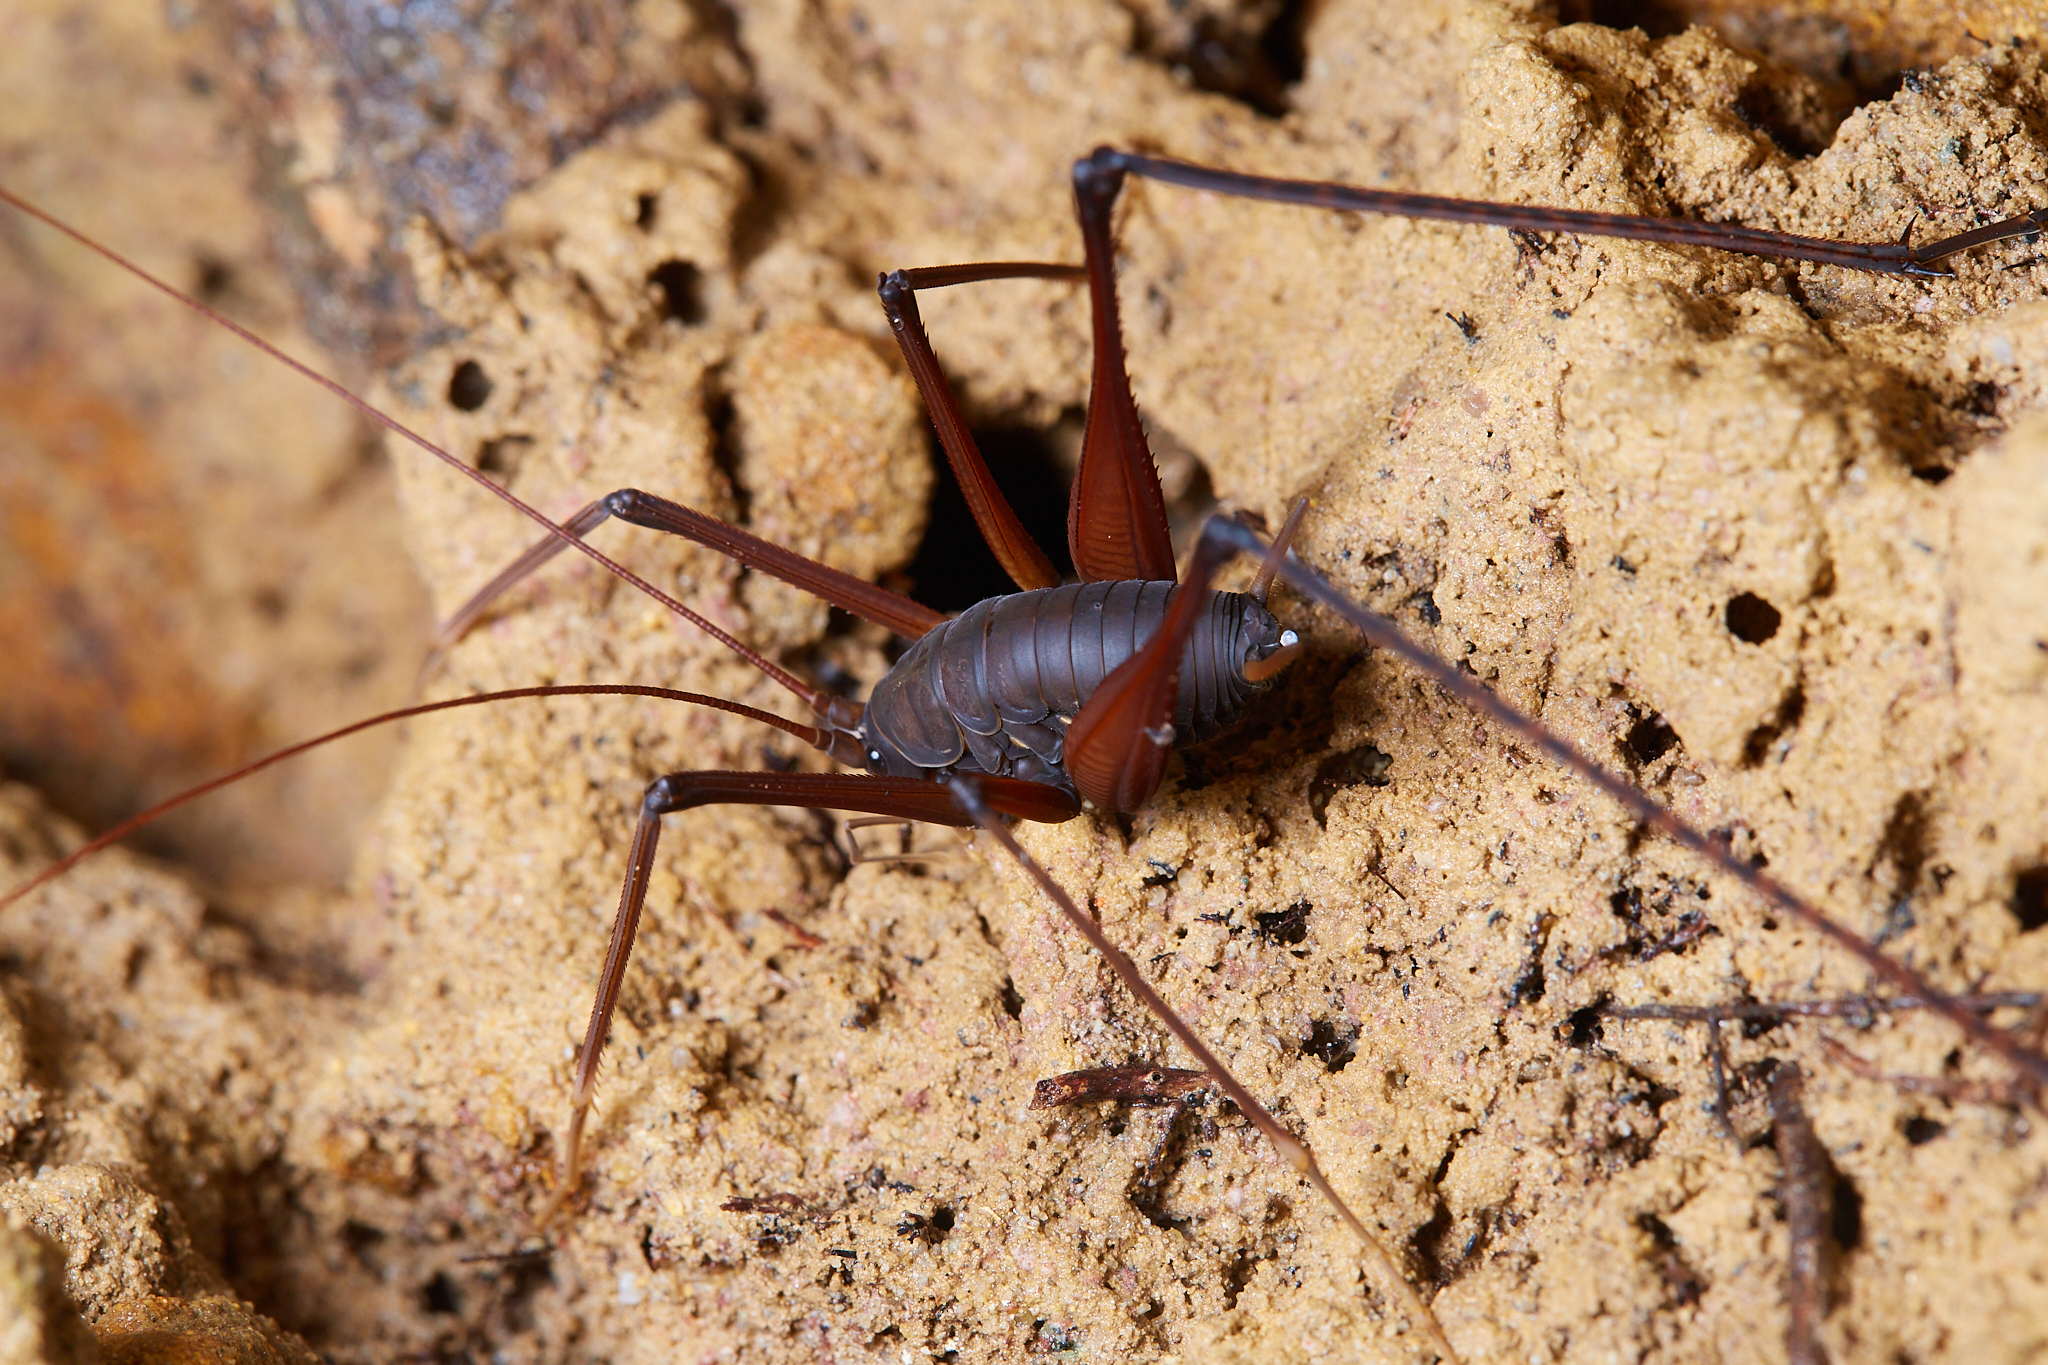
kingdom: Animalia
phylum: Arthropoda
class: Insecta
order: Orthoptera
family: Rhaphidophoridae
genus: Tropidischia
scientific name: Tropidischia xanthostoma
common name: Square-legged camel cricket
